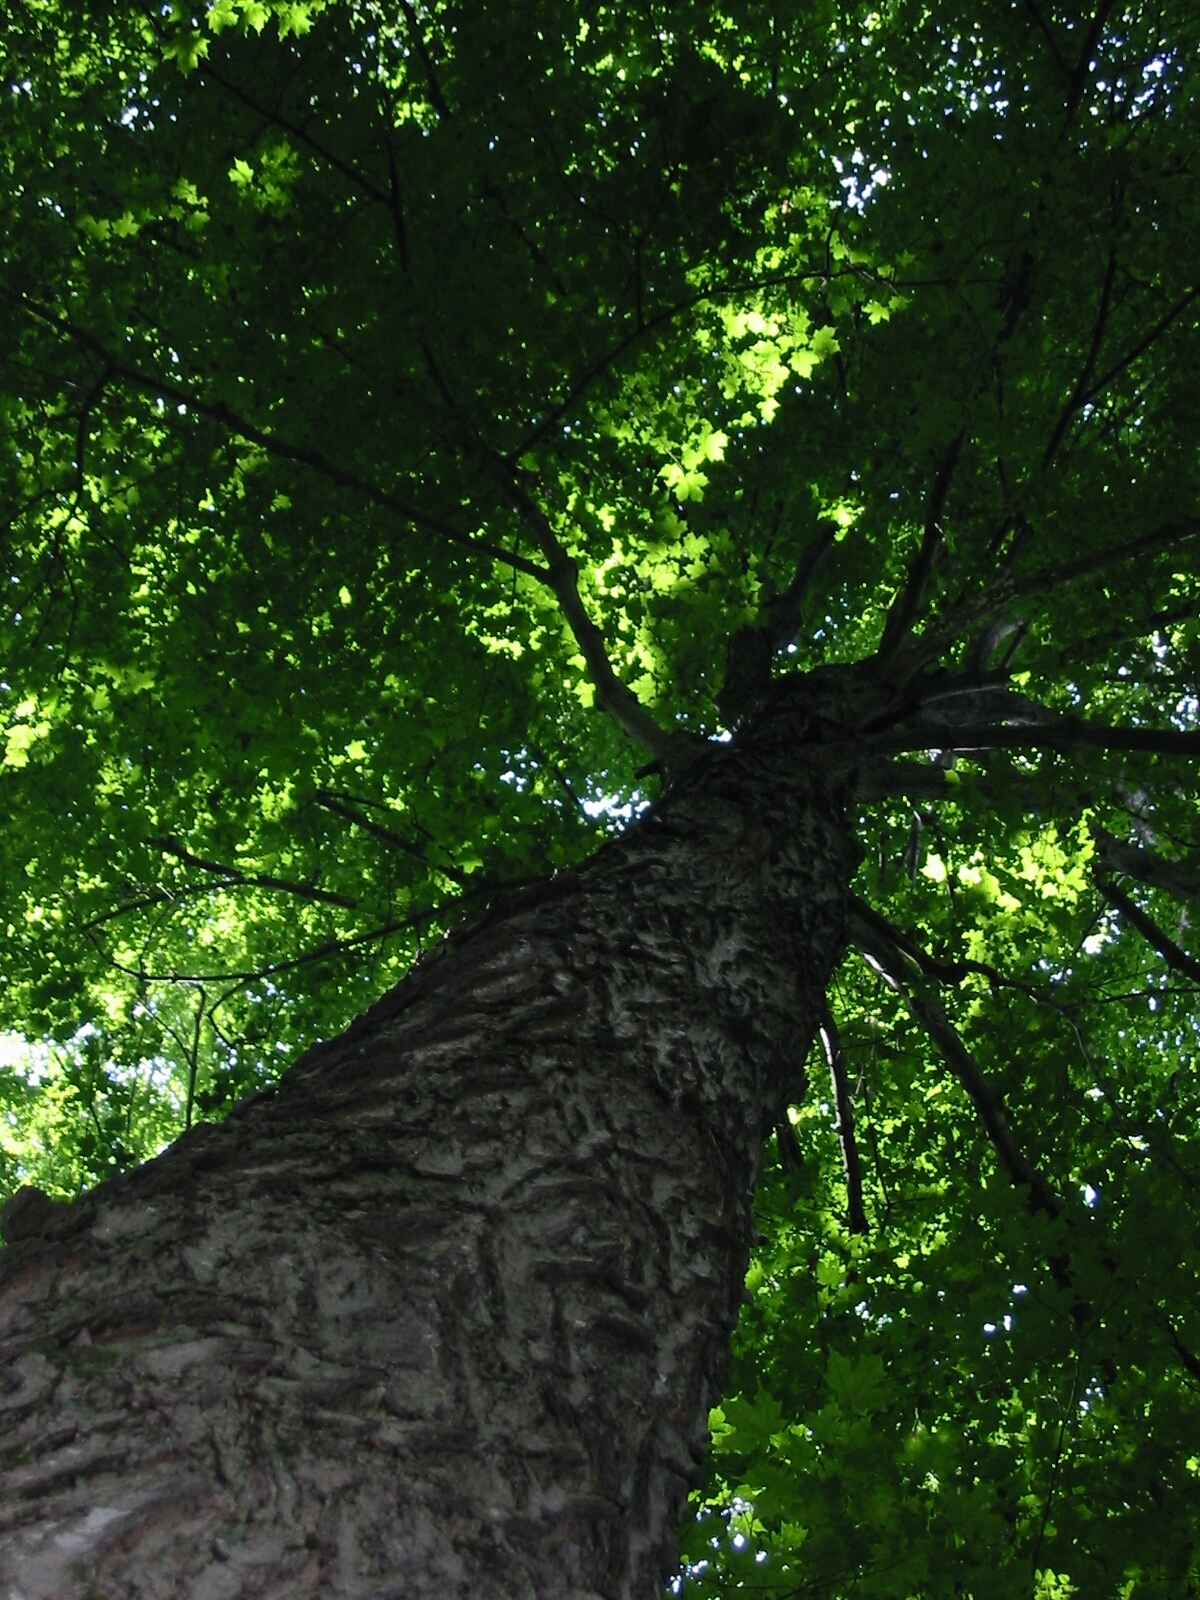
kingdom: Plantae
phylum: Tracheophyta
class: Magnoliopsida
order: Sapindales
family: Sapindaceae
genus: Acer
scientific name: Acer saccharum
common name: Sugar maple
